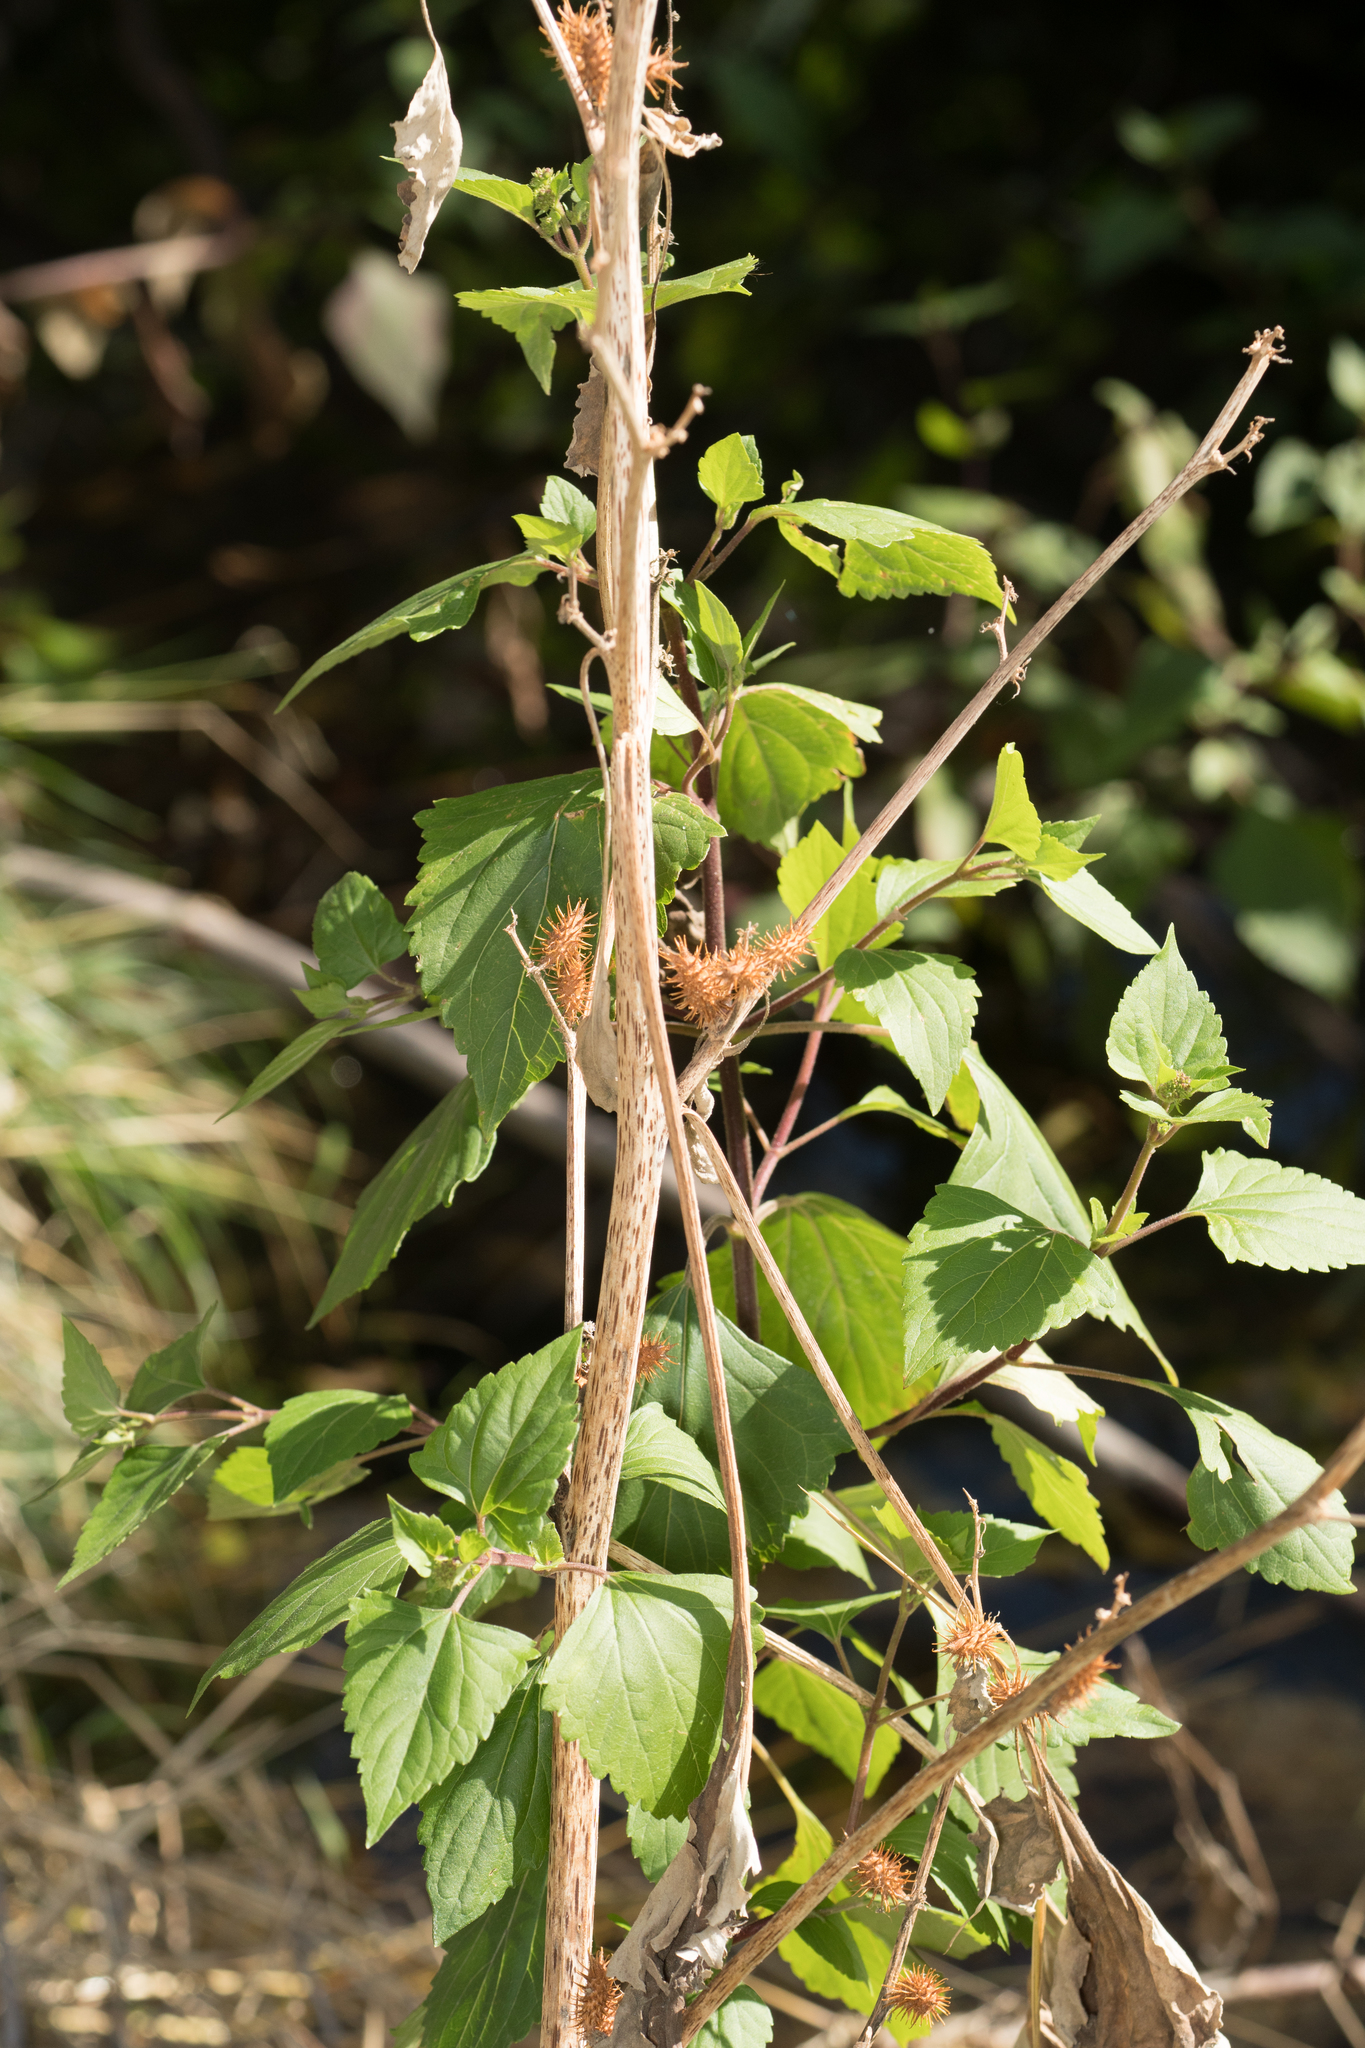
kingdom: Plantae
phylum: Tracheophyta
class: Magnoliopsida
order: Asterales
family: Asteraceae
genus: Xanthium
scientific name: Xanthium strumarium
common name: Rough cocklebur
